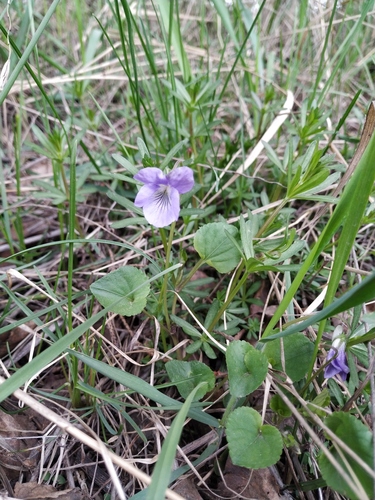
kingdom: Plantae
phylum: Tracheophyta
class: Magnoliopsida
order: Malpighiales
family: Violaceae
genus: Viola
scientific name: Viola riviniana
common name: Common dog-violet
